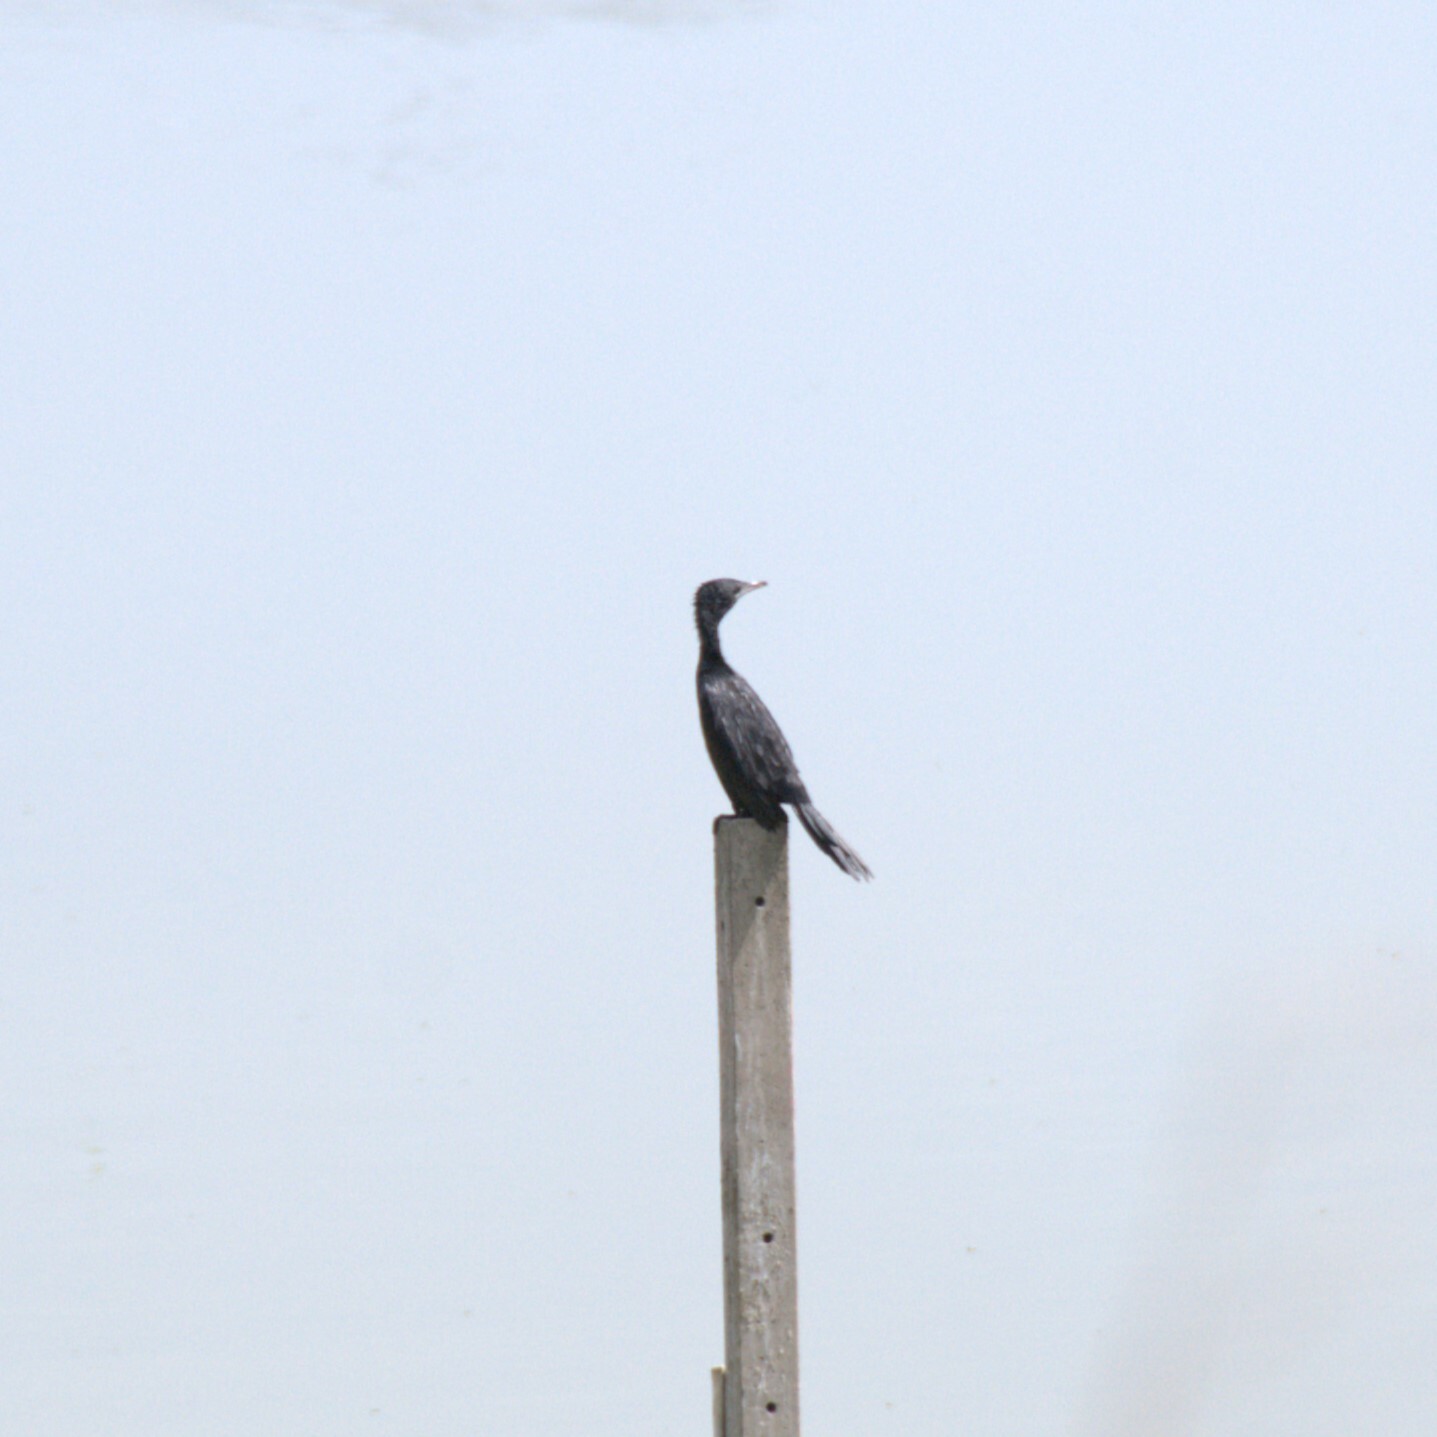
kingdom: Animalia
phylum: Chordata
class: Aves
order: Suliformes
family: Phalacrocoracidae
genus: Microcarbo
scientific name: Microcarbo niger
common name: Little cormorant
